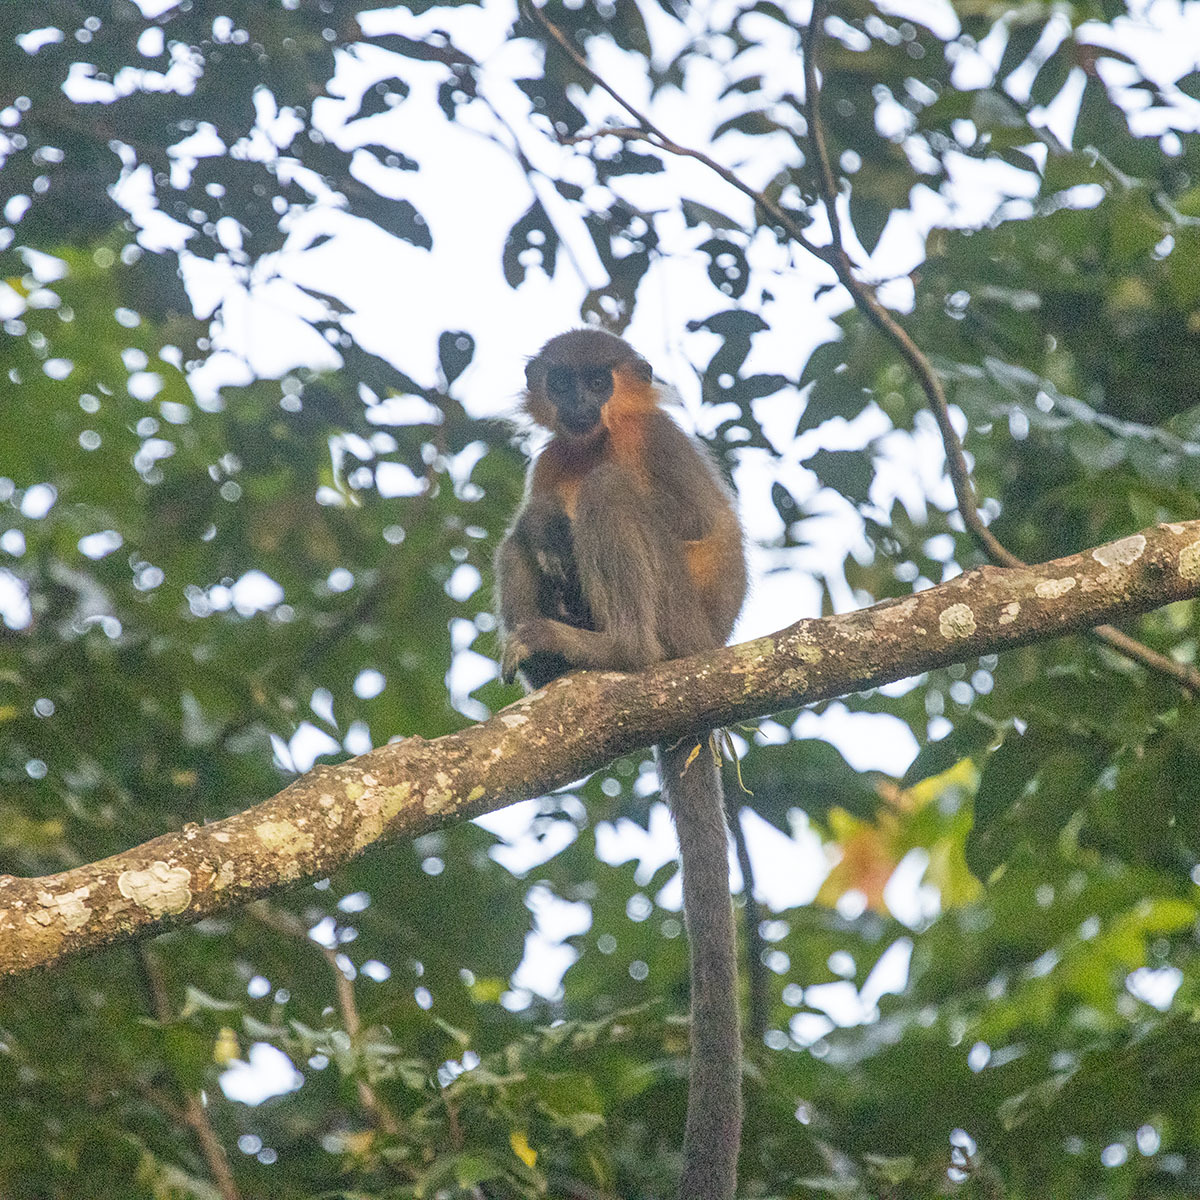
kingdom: Animalia
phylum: Chordata
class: Mammalia
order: Primates
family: Cercopithecidae
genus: Trachypithecus
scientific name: Trachypithecus pileatus
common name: Capped langur
